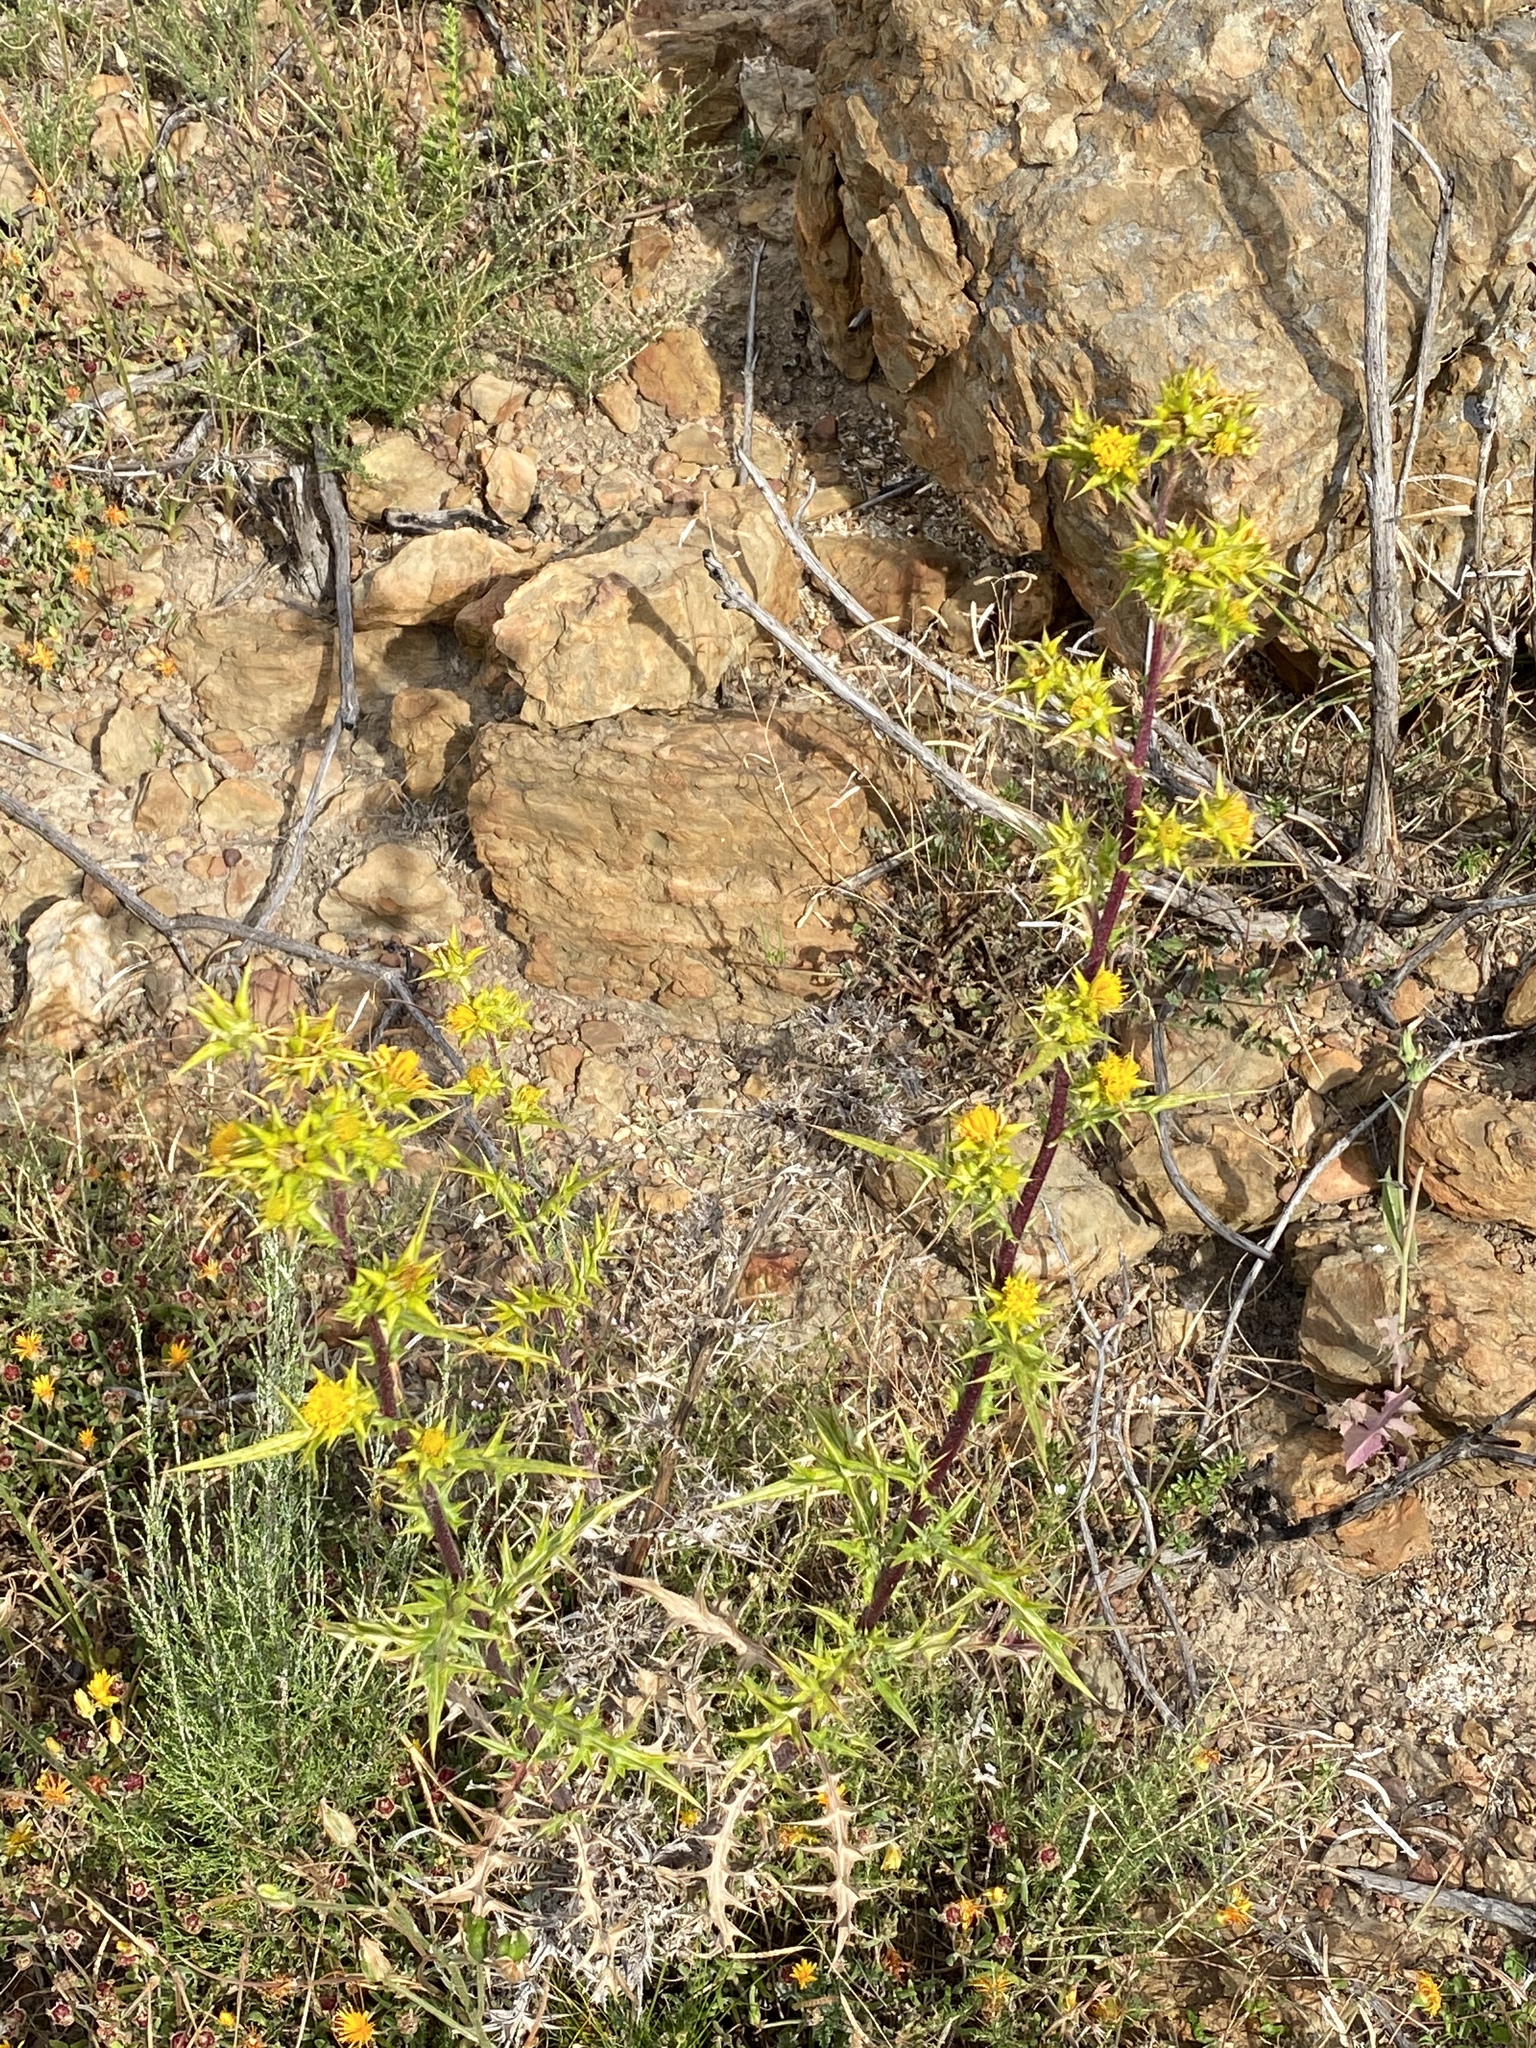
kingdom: Plantae
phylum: Tracheophyta
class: Magnoliopsida
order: Asterales
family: Asteraceae
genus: Berkheya
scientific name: Berkheya rigida
